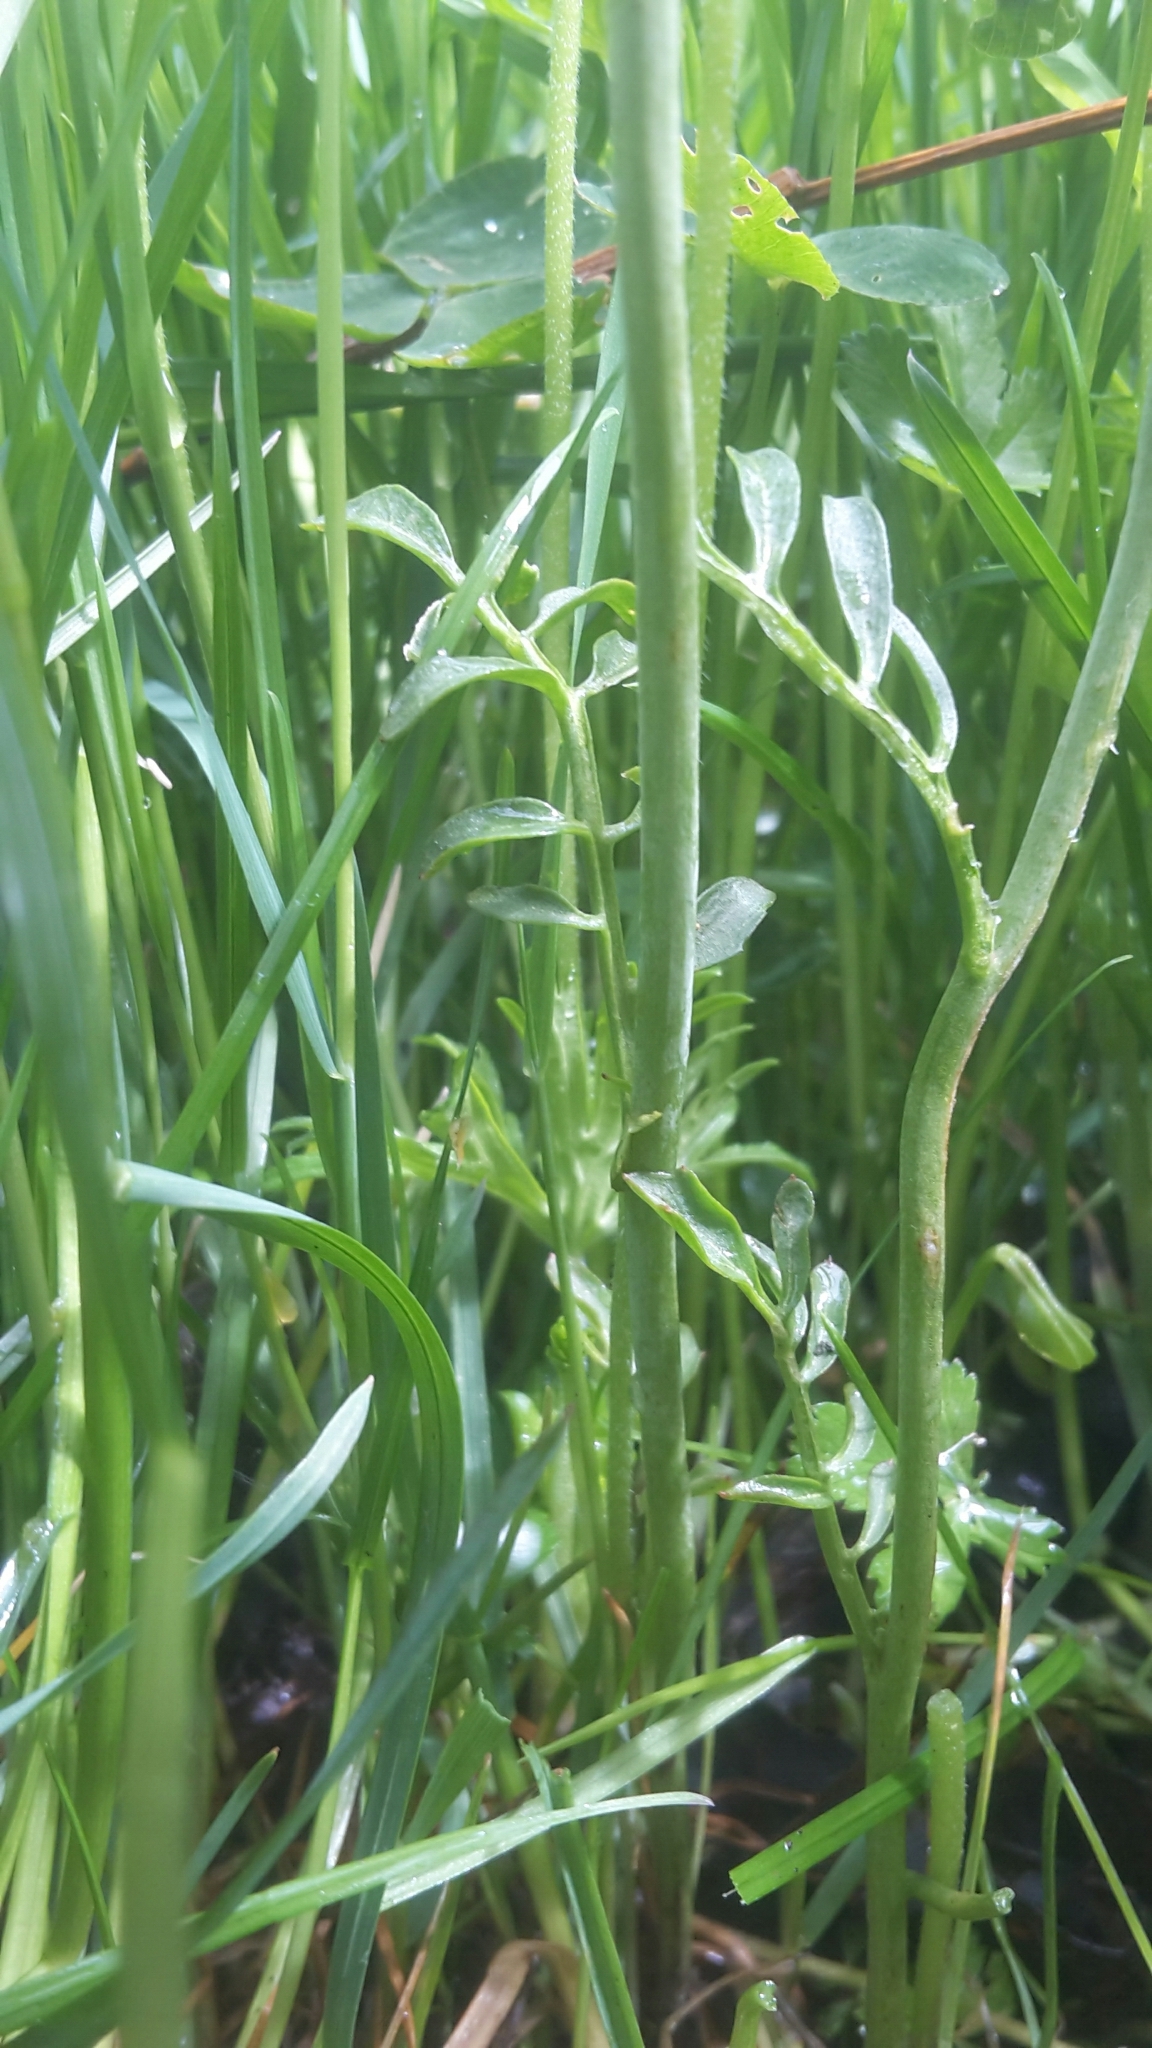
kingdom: Plantae
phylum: Tracheophyta
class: Magnoliopsida
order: Brassicales
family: Brassicaceae
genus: Cardamine
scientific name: Cardamine pratensis
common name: Cuckoo flower
